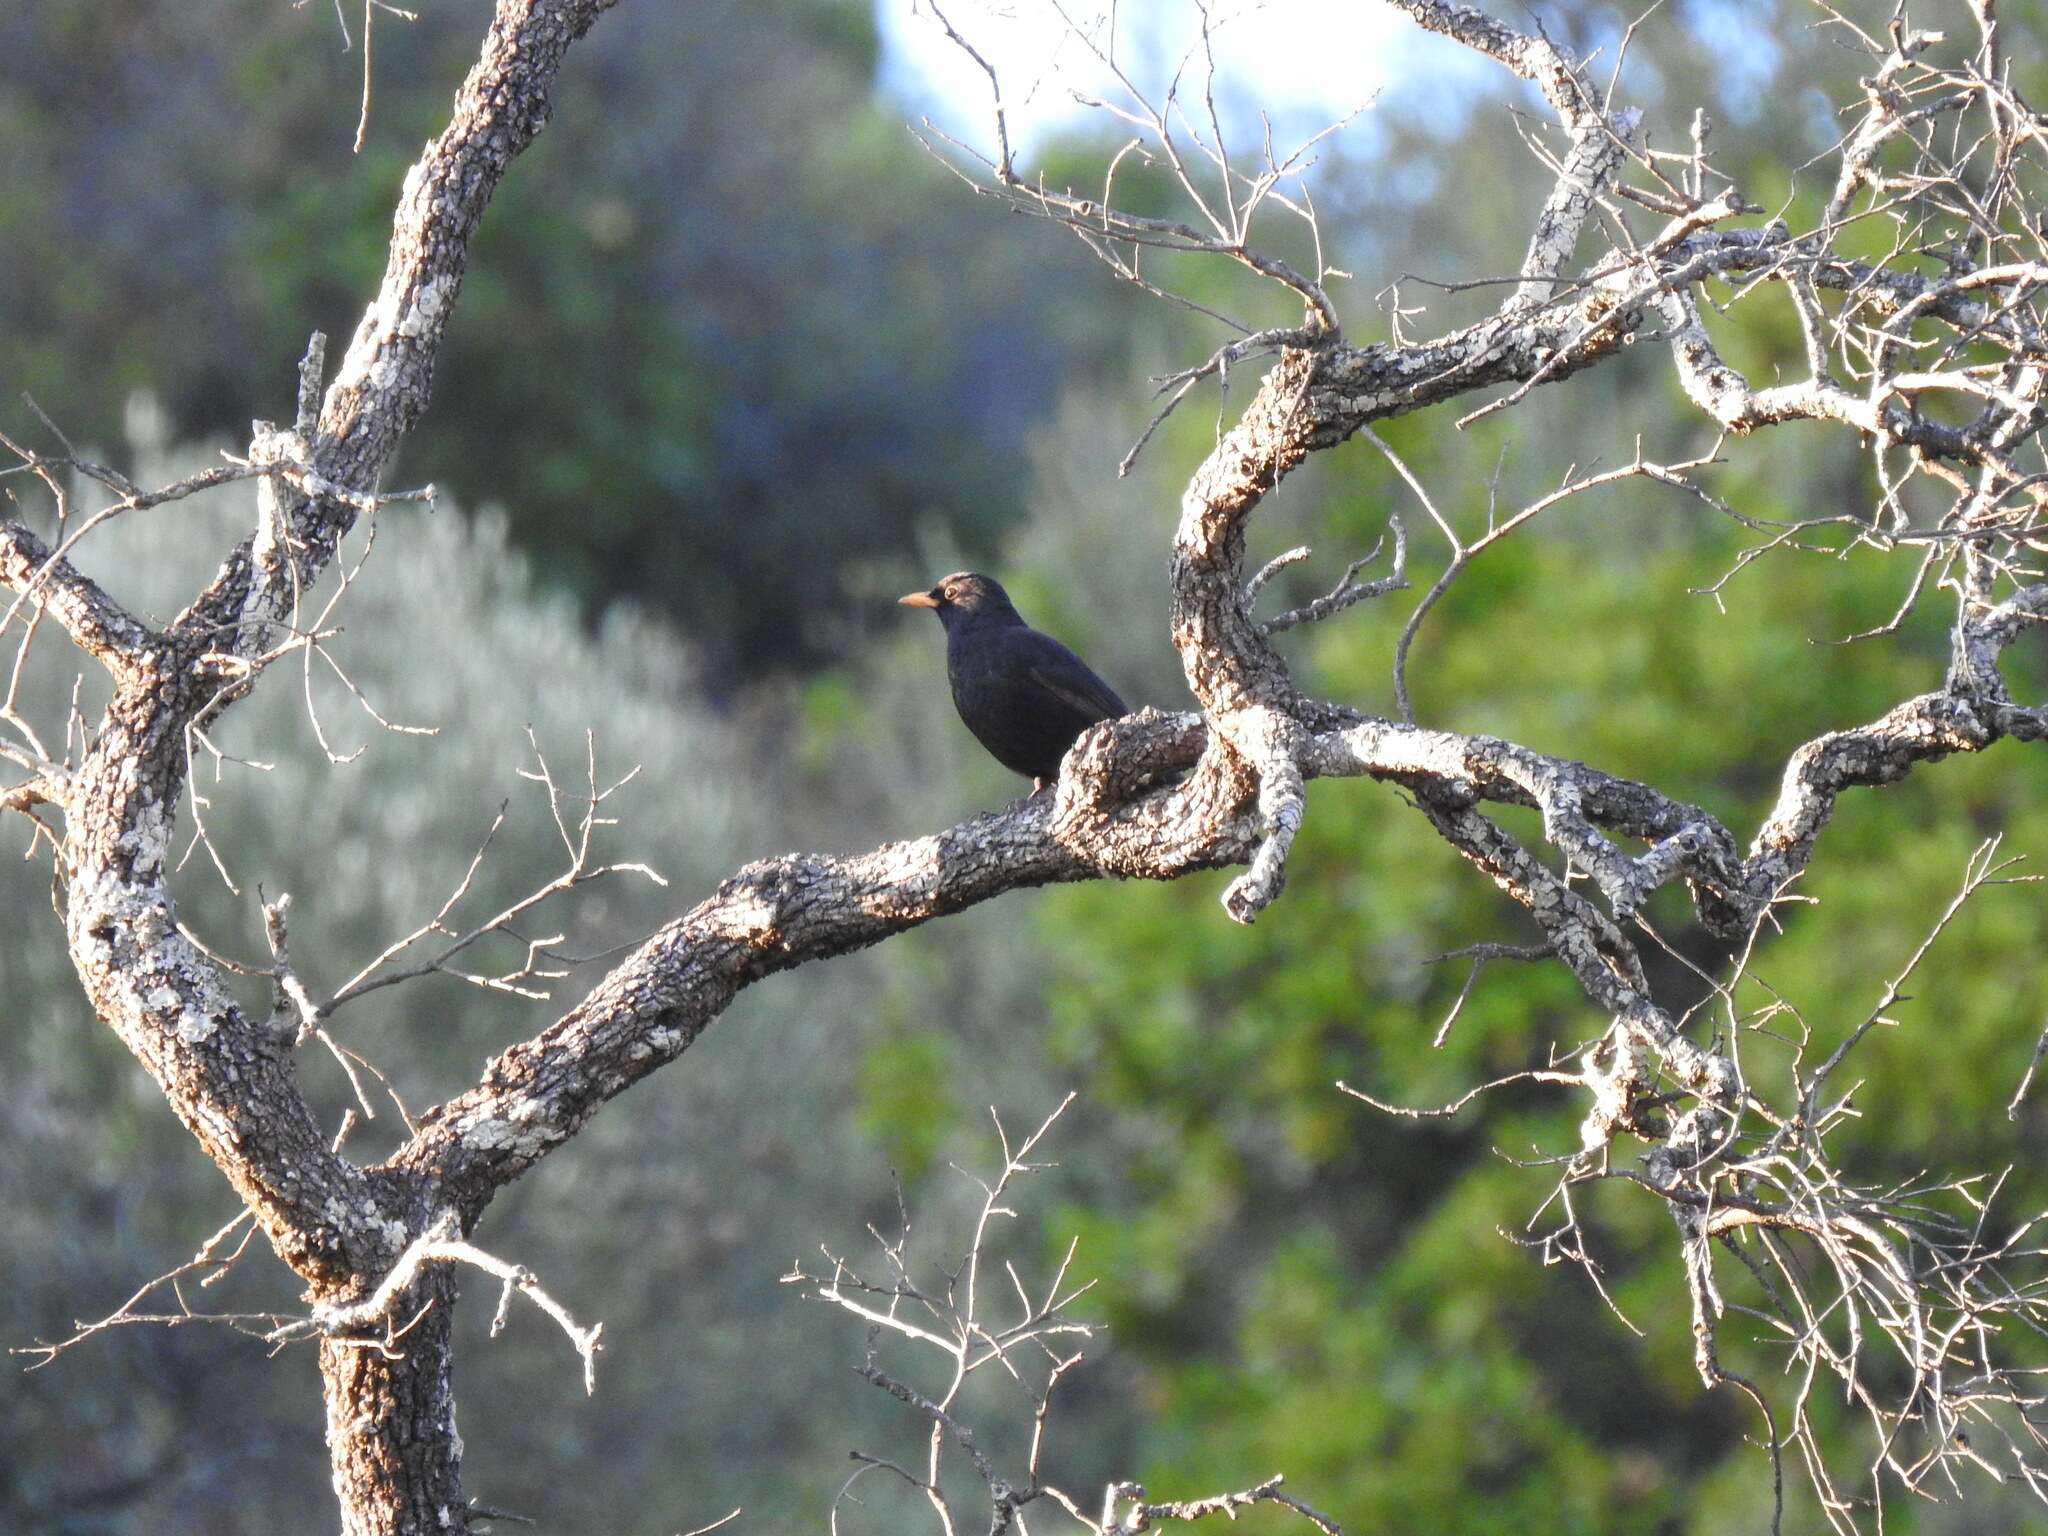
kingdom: Animalia
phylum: Chordata
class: Aves
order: Passeriformes
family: Turdidae
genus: Turdus
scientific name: Turdus merula
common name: Common blackbird
